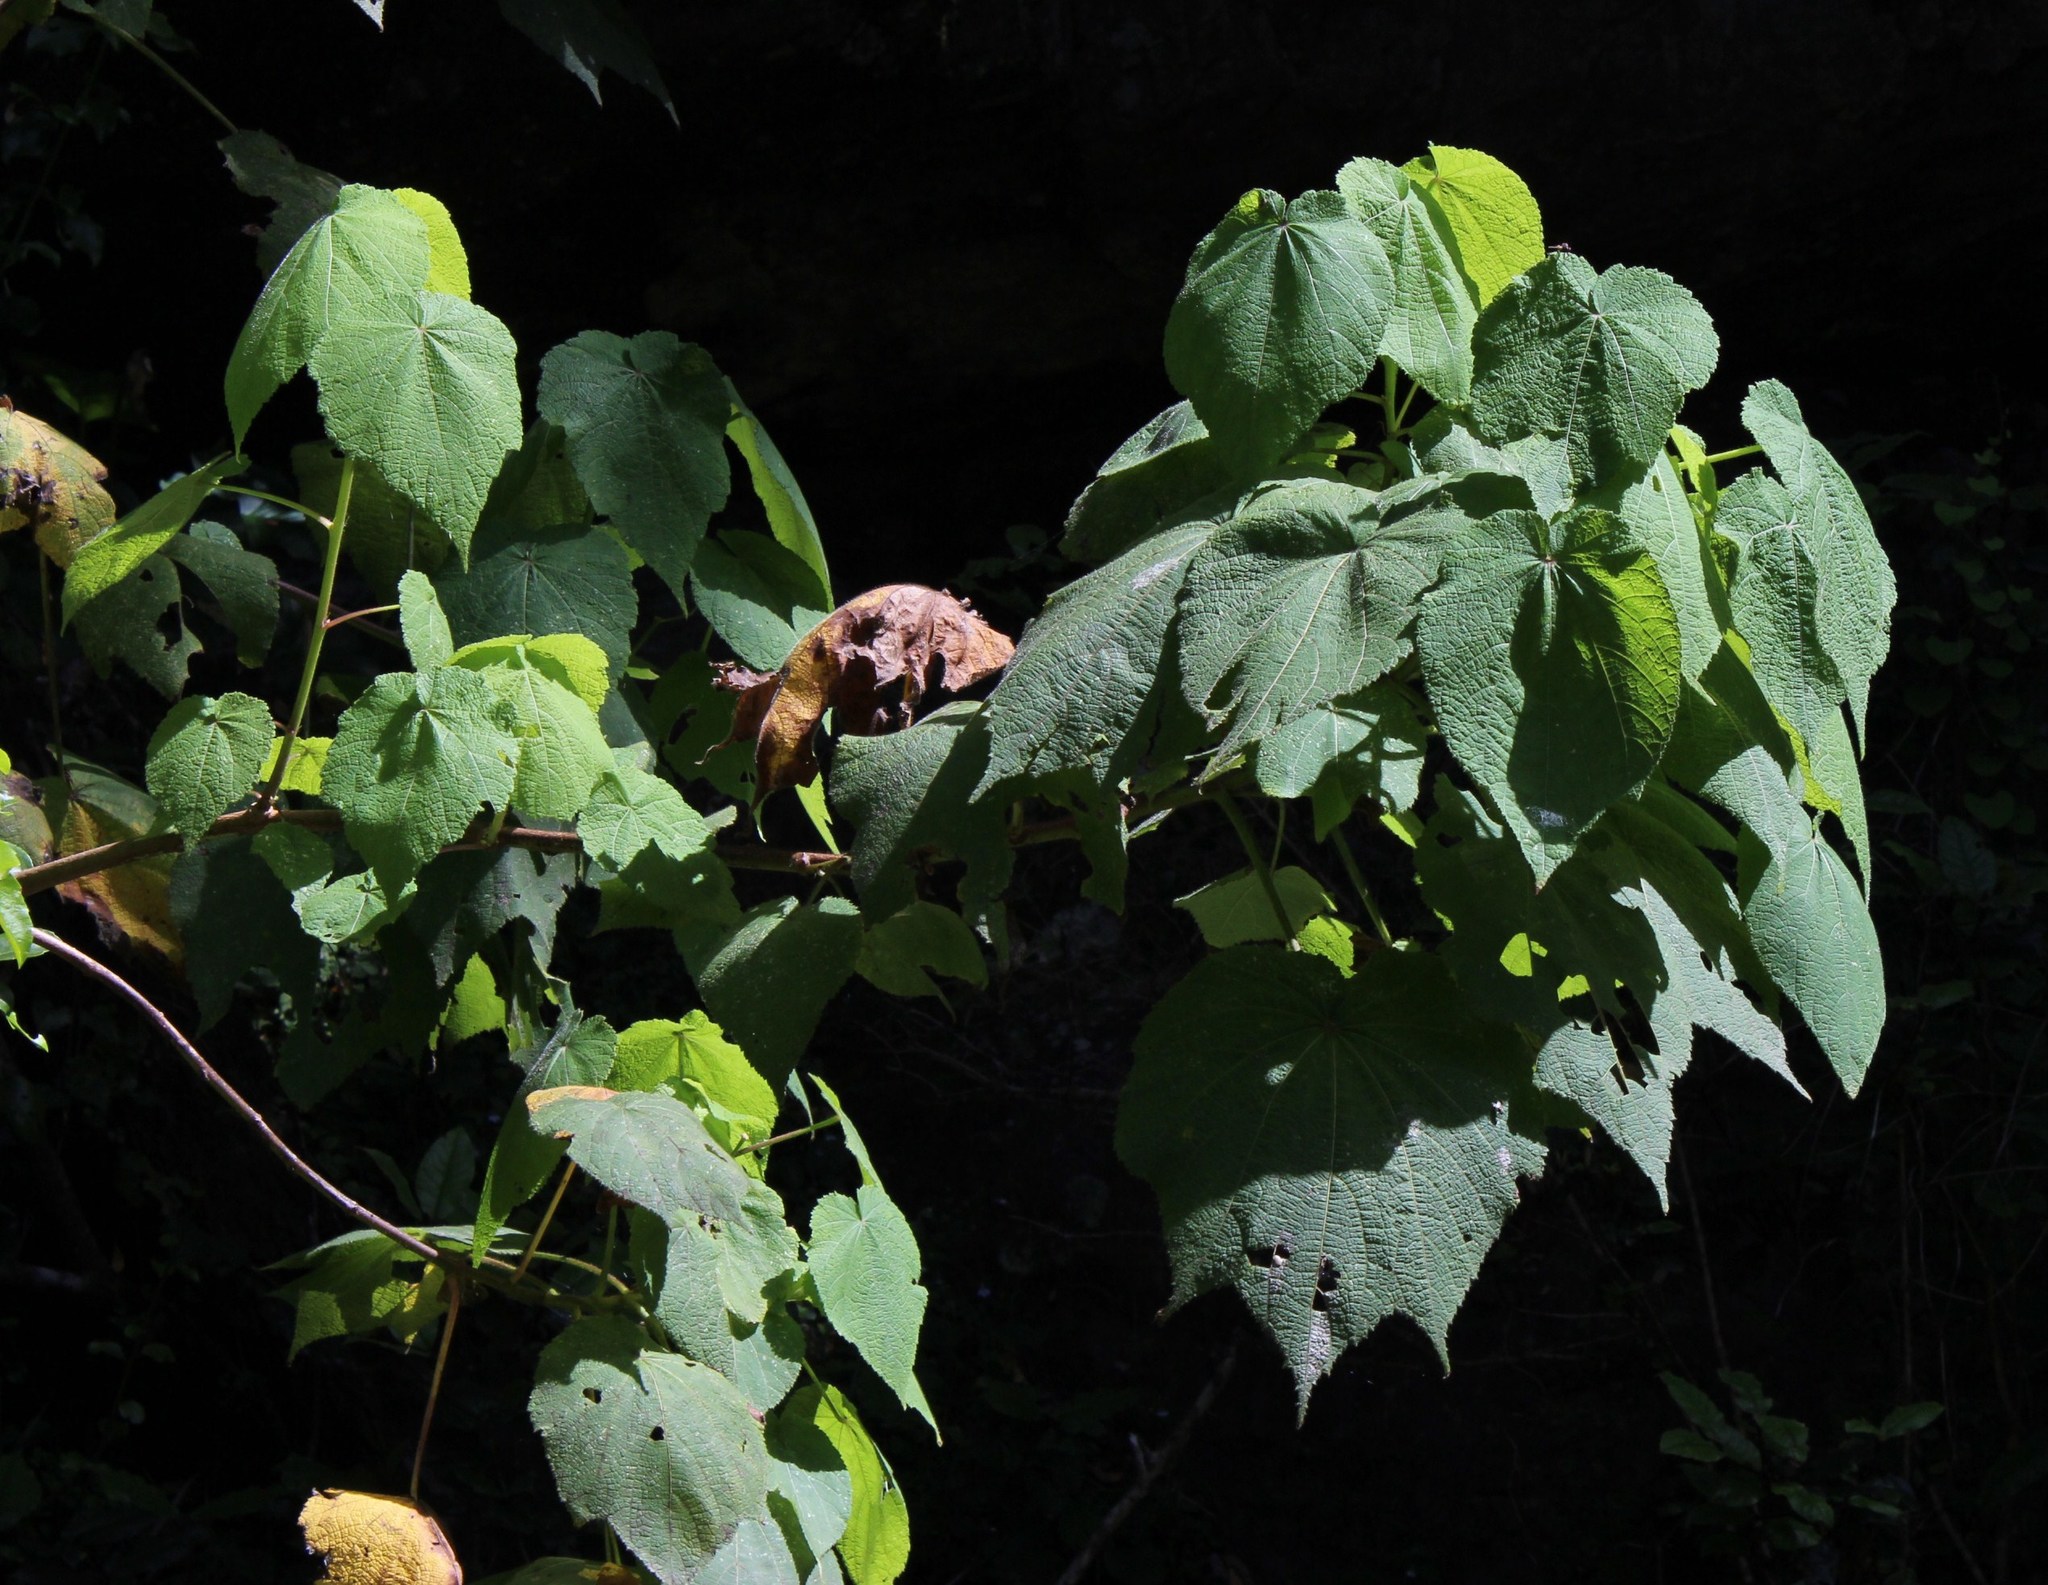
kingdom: Plantae
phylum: Tracheophyta
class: Magnoliopsida
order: Malvales
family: Malvaceae
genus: Sparrmannia
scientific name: Sparrmannia africana
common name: African-hemp
